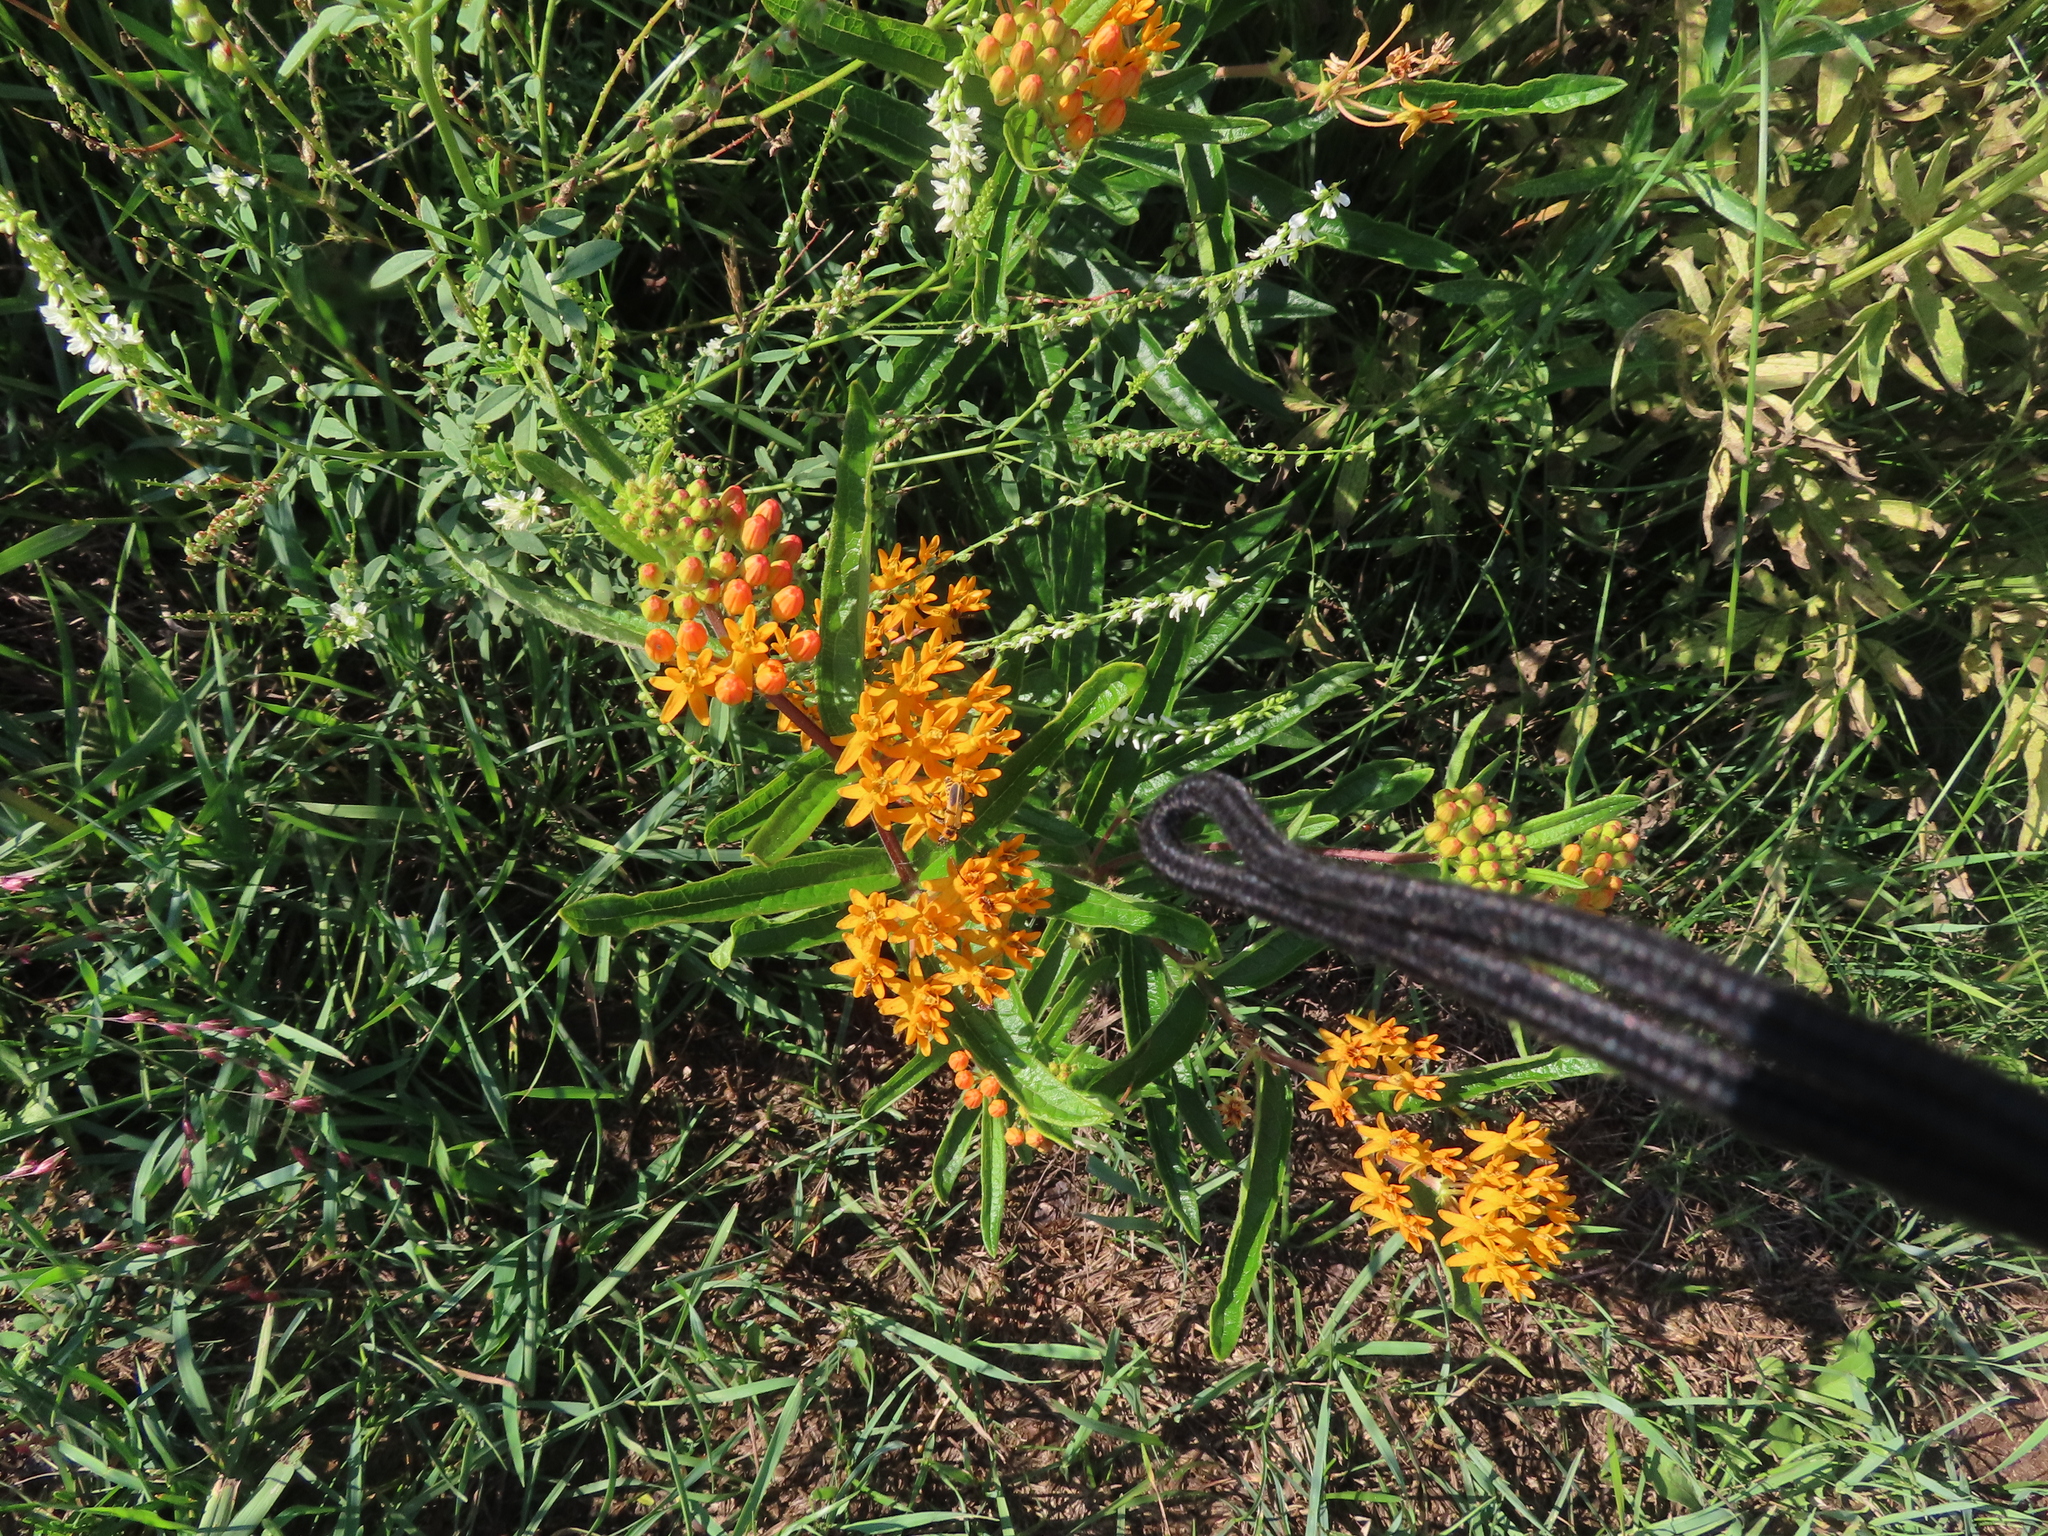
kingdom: Plantae
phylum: Tracheophyta
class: Magnoliopsida
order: Gentianales
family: Apocynaceae
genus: Asclepias
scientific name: Asclepias tuberosa
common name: Butterfly milkweed
